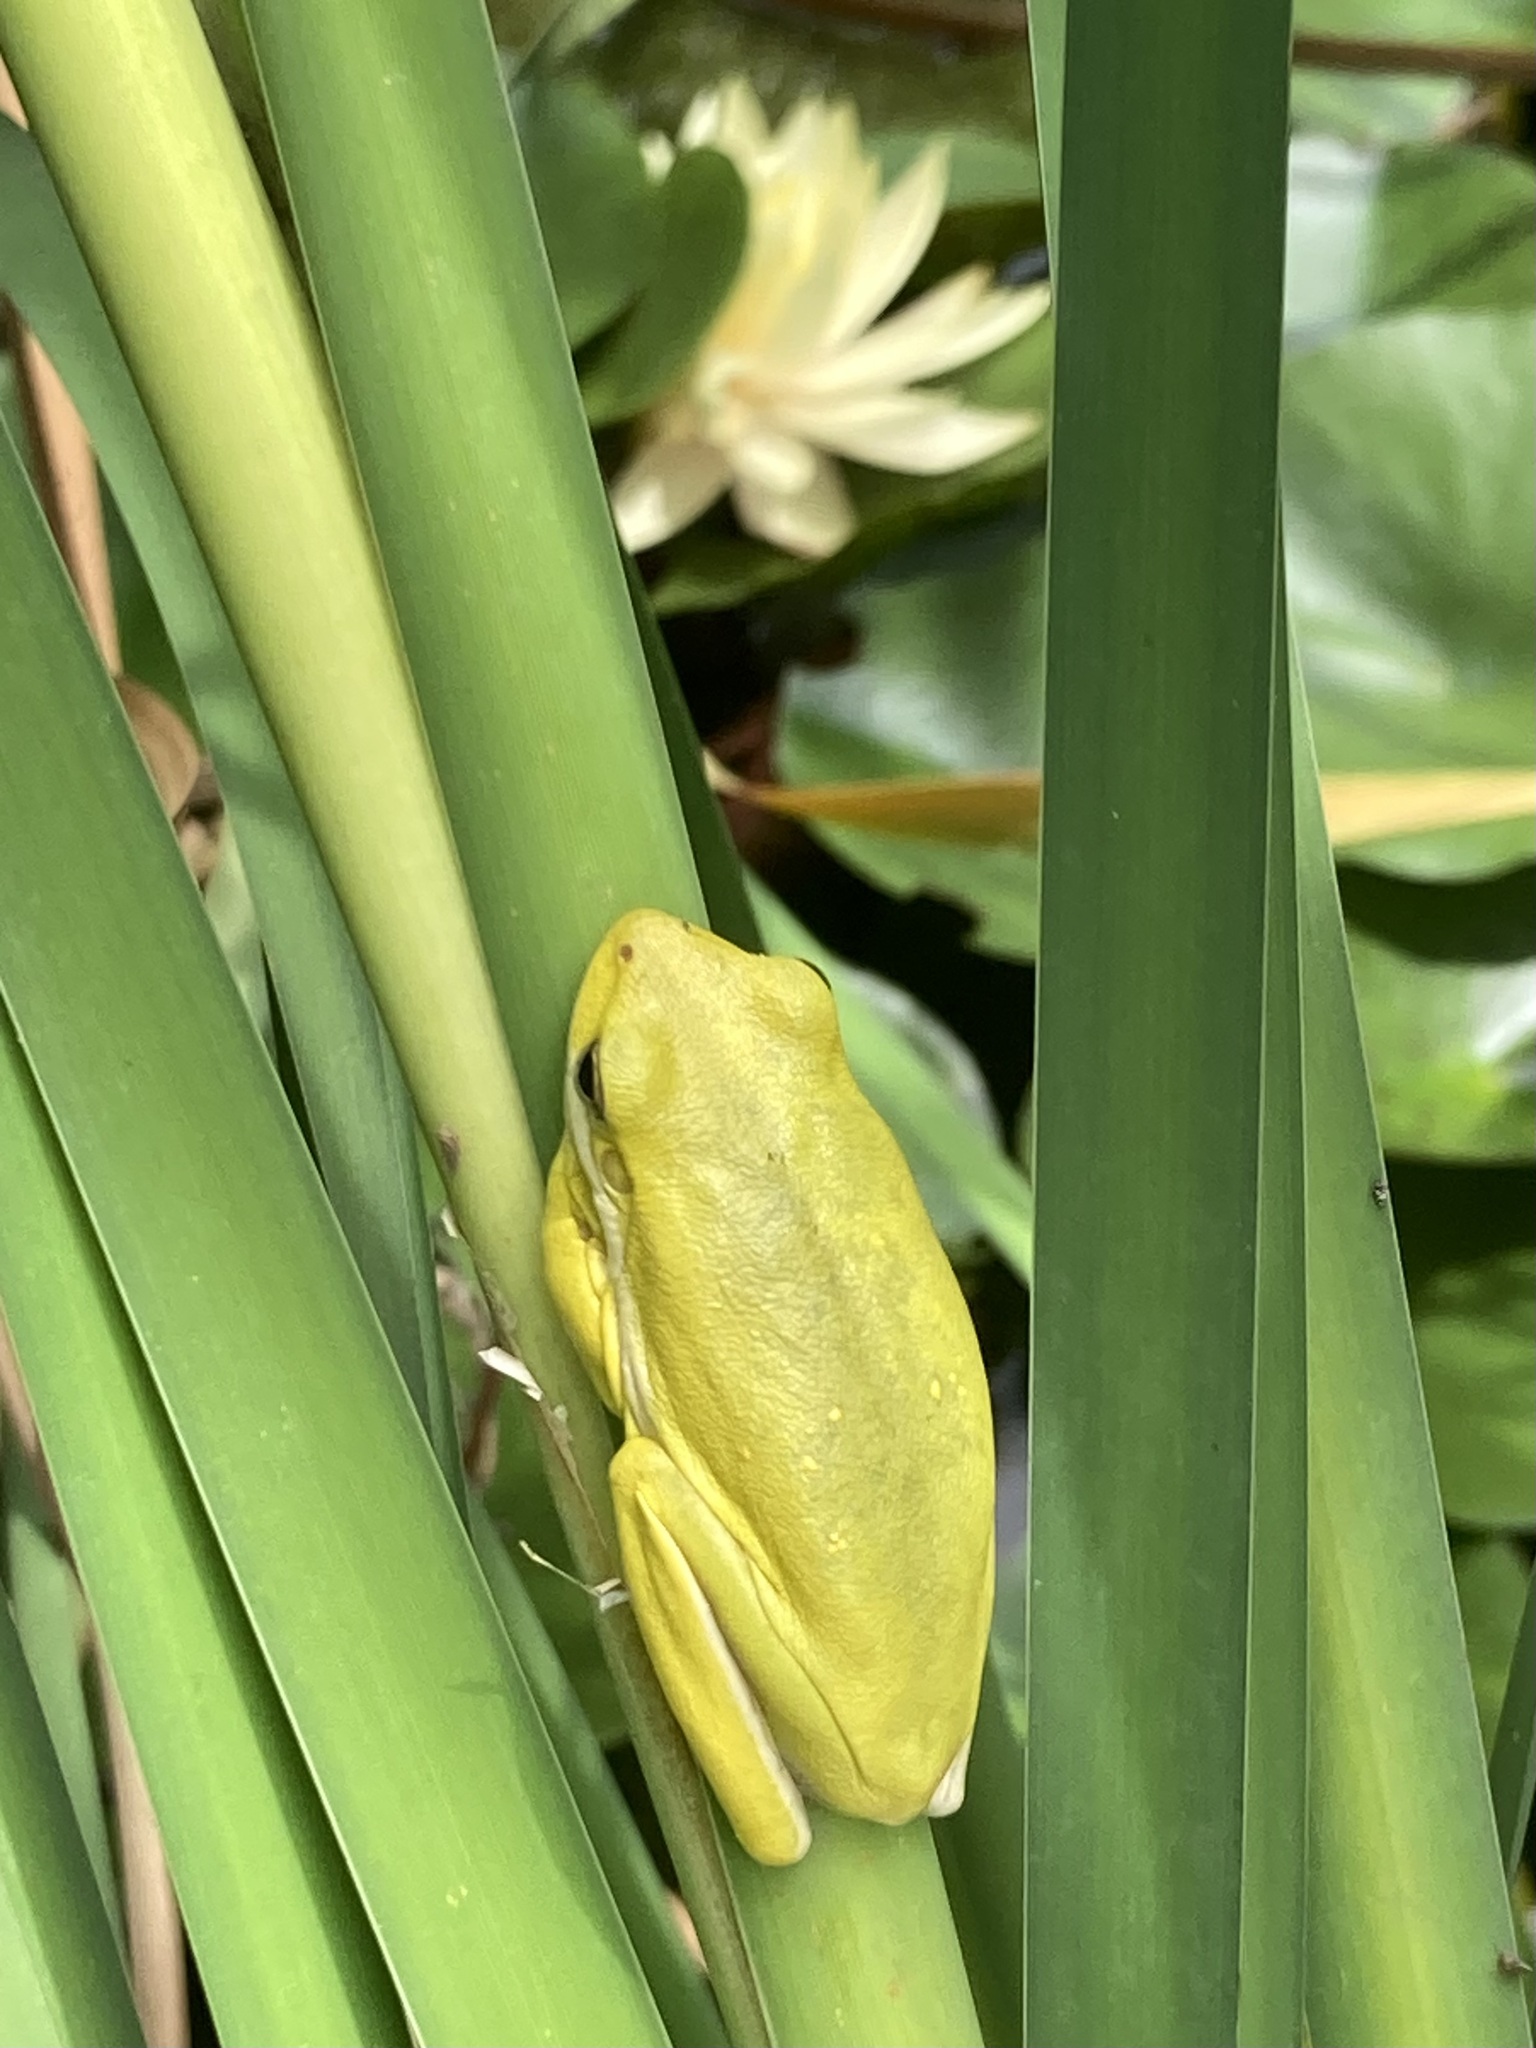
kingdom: Animalia
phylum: Chordata
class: Amphibia
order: Anura
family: Hylidae
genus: Dryophytes
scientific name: Dryophytes cinereus
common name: Green treefrog
